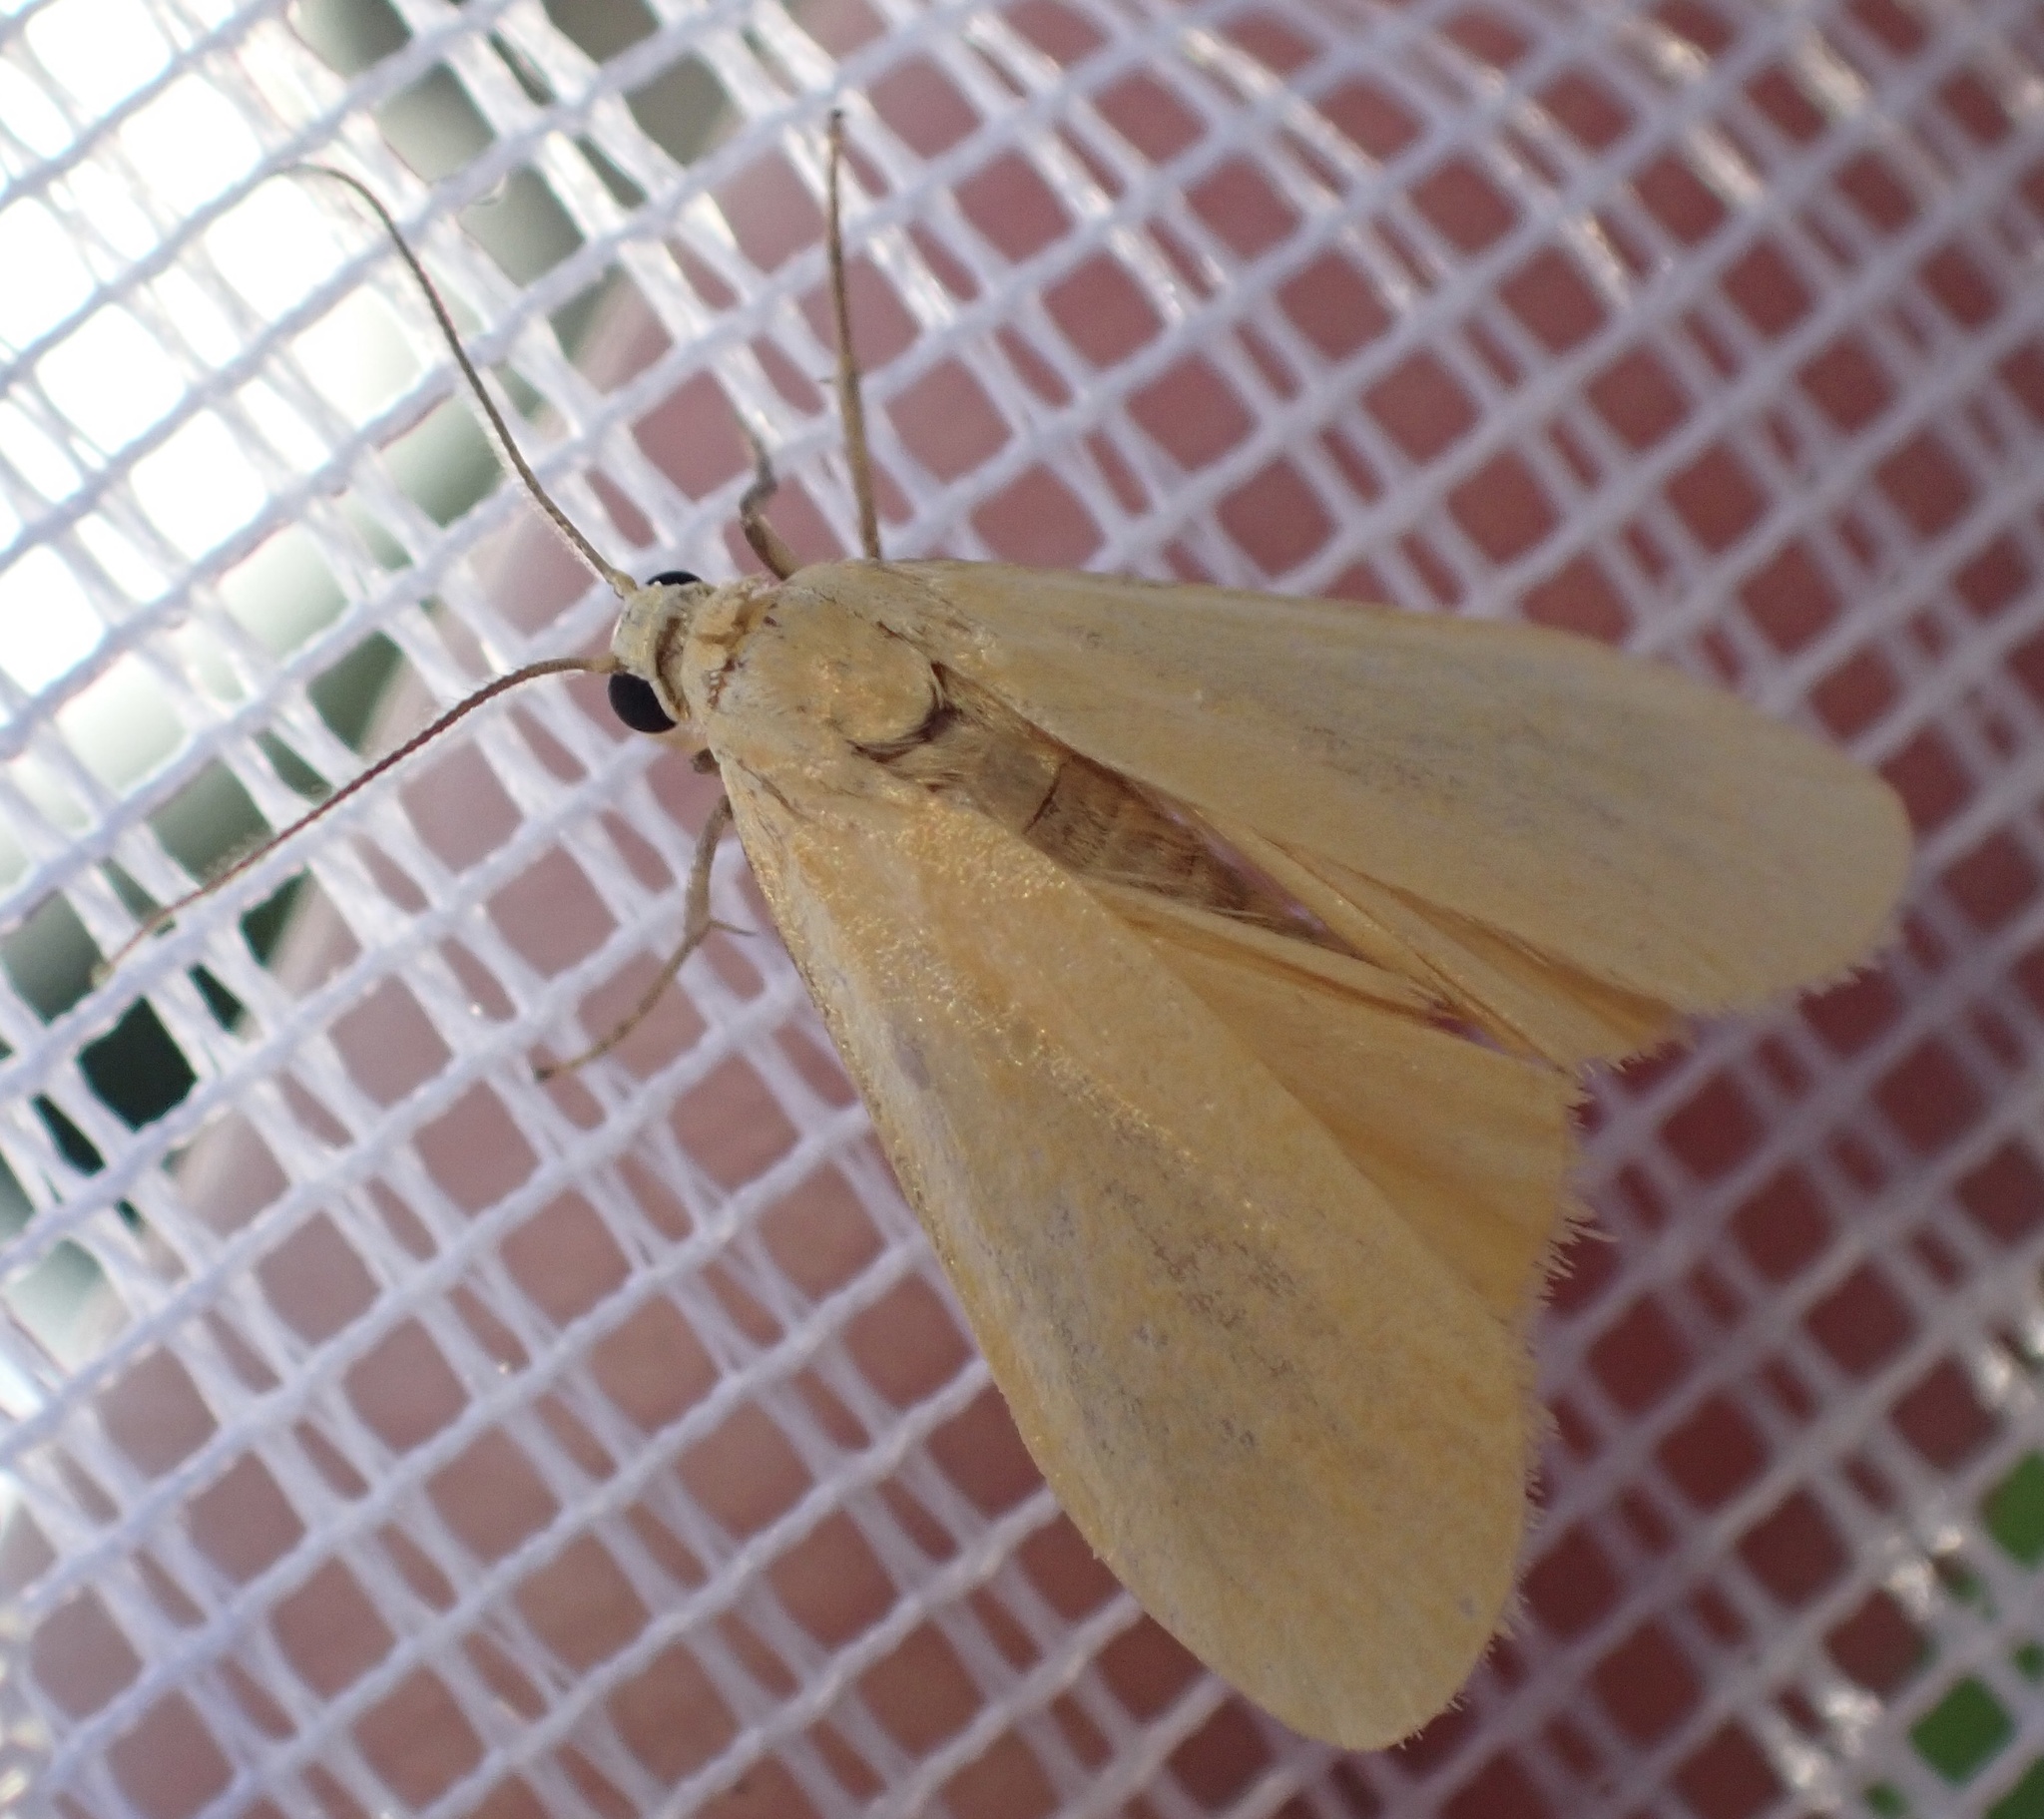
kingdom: Animalia
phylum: Arthropoda
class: Insecta
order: Lepidoptera
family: Erebidae
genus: Wittia
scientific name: Wittia sororcula
